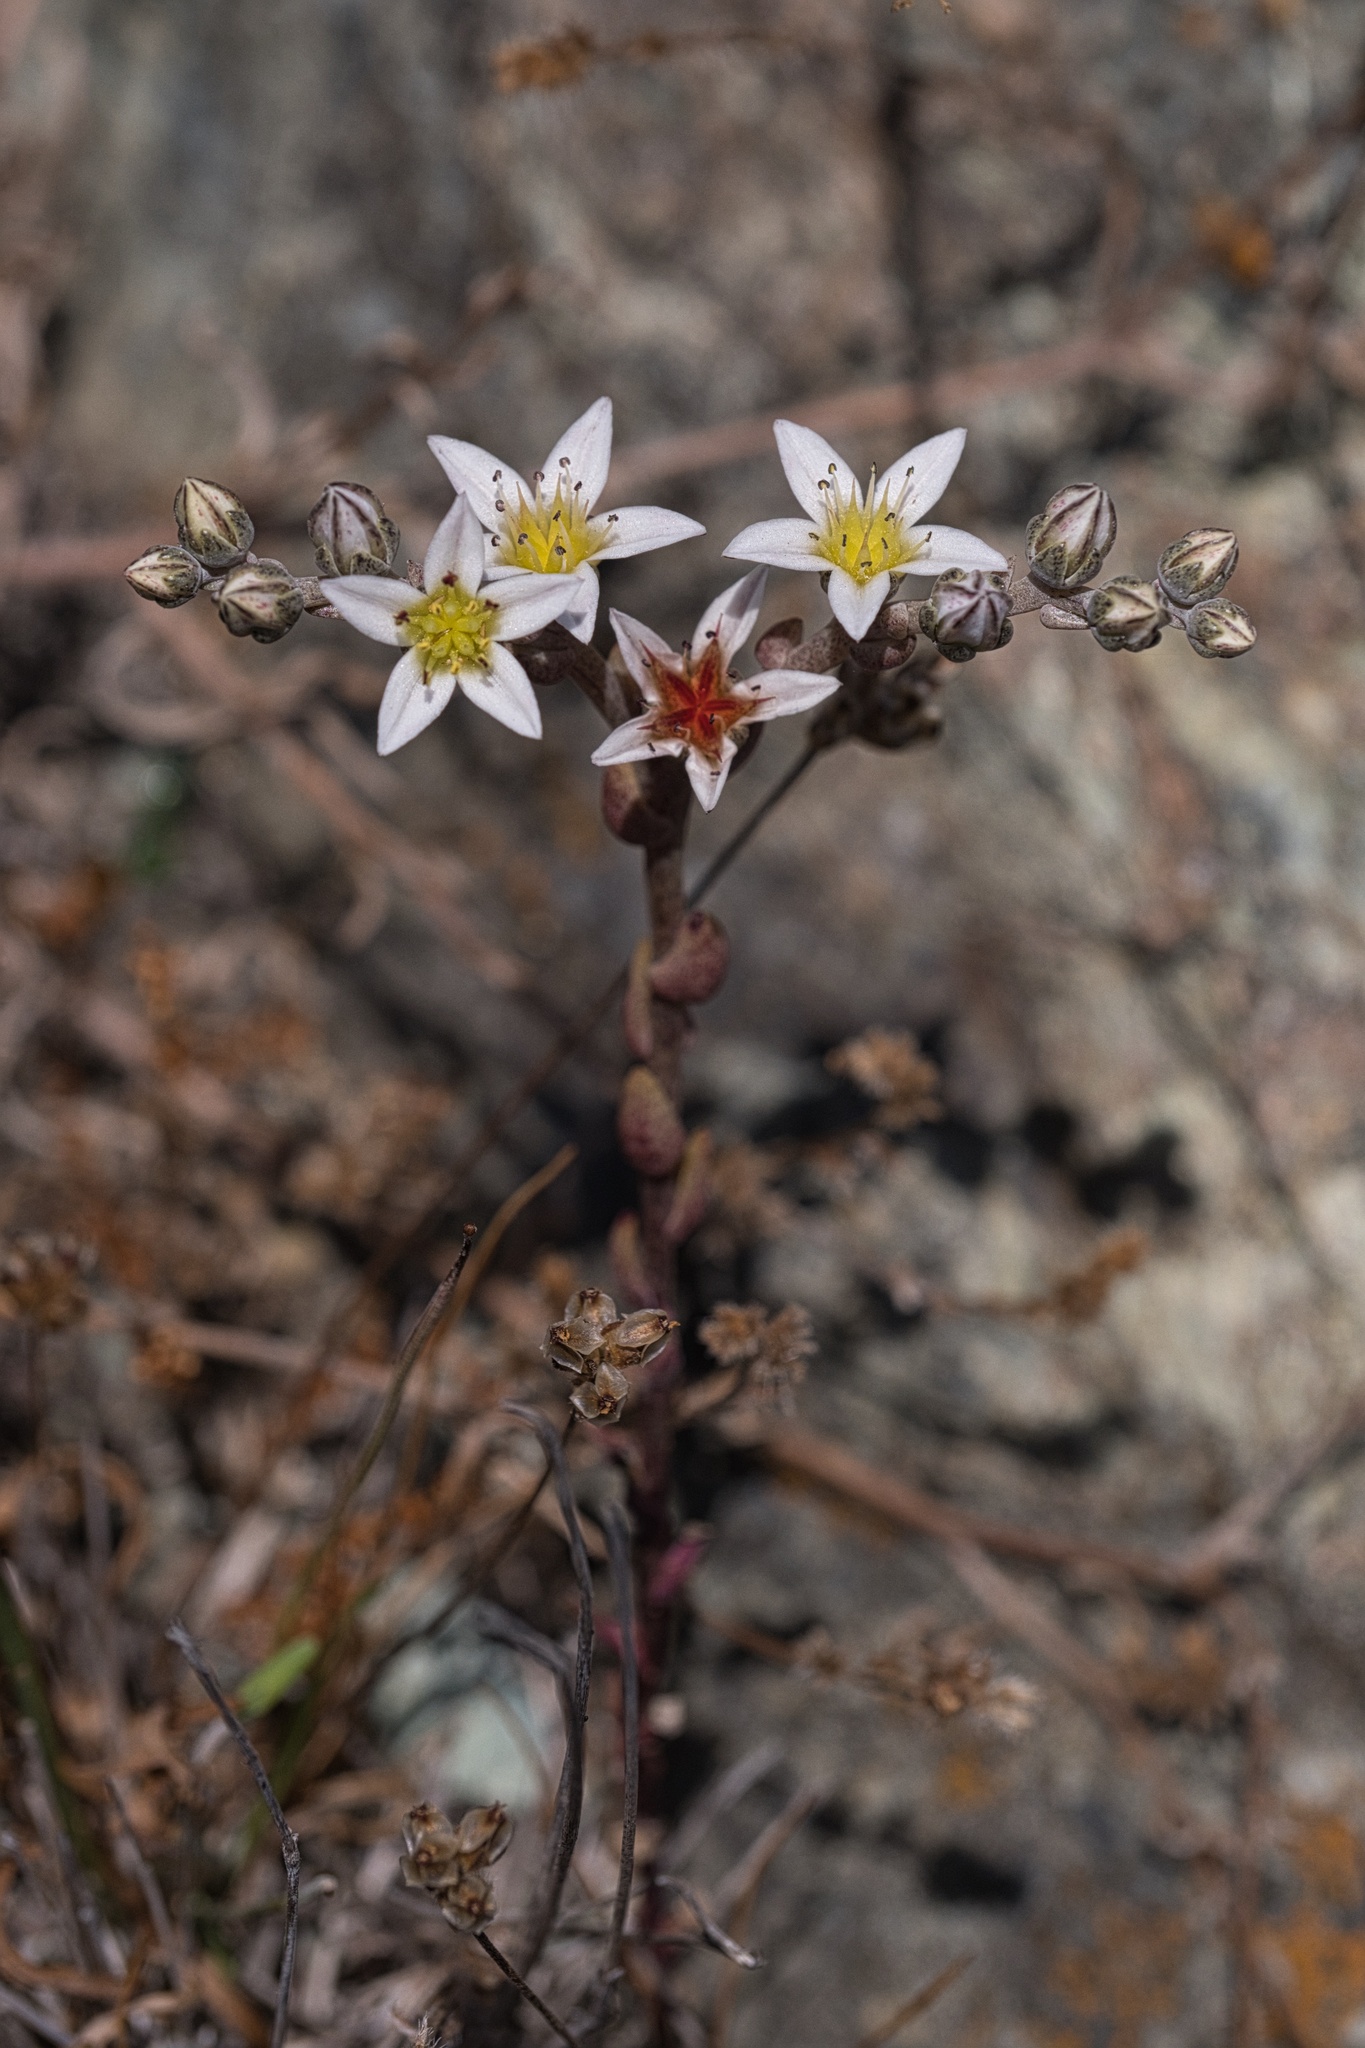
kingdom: Plantae
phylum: Tracheophyta
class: Magnoliopsida
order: Saxifragales
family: Crassulaceae
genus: Dudleya
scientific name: Dudleya blochmaniae
